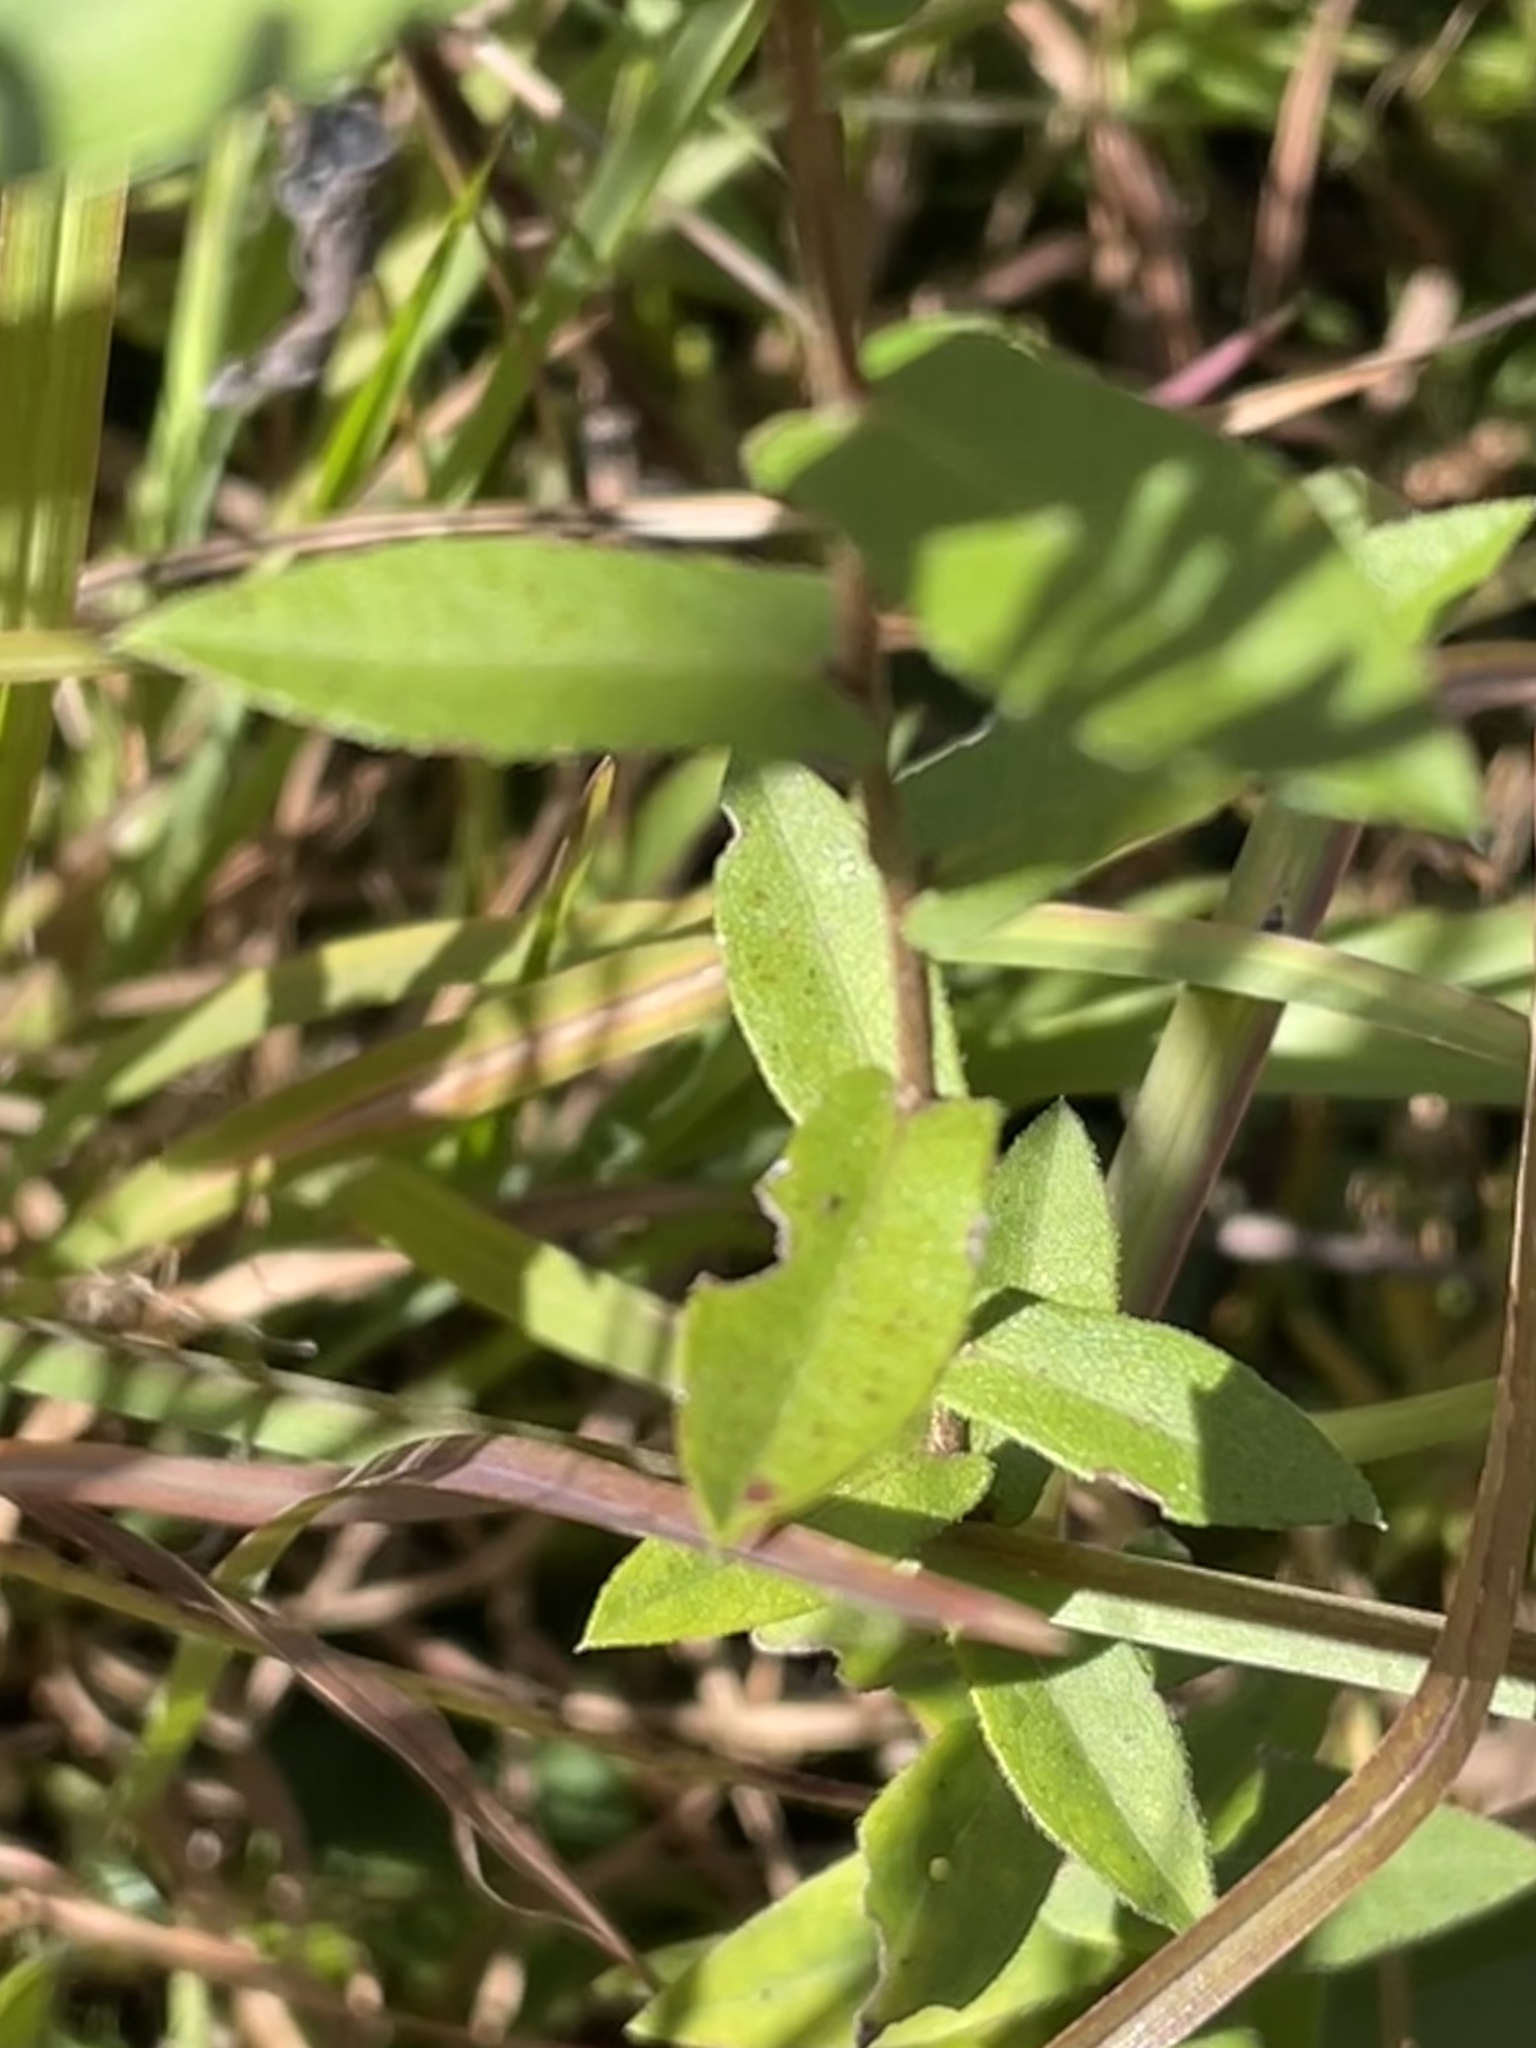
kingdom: Plantae
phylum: Tracheophyta
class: Magnoliopsida
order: Asterales
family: Asteraceae
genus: Symphyotrichum
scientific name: Symphyotrichum patens
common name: Late purple aster
